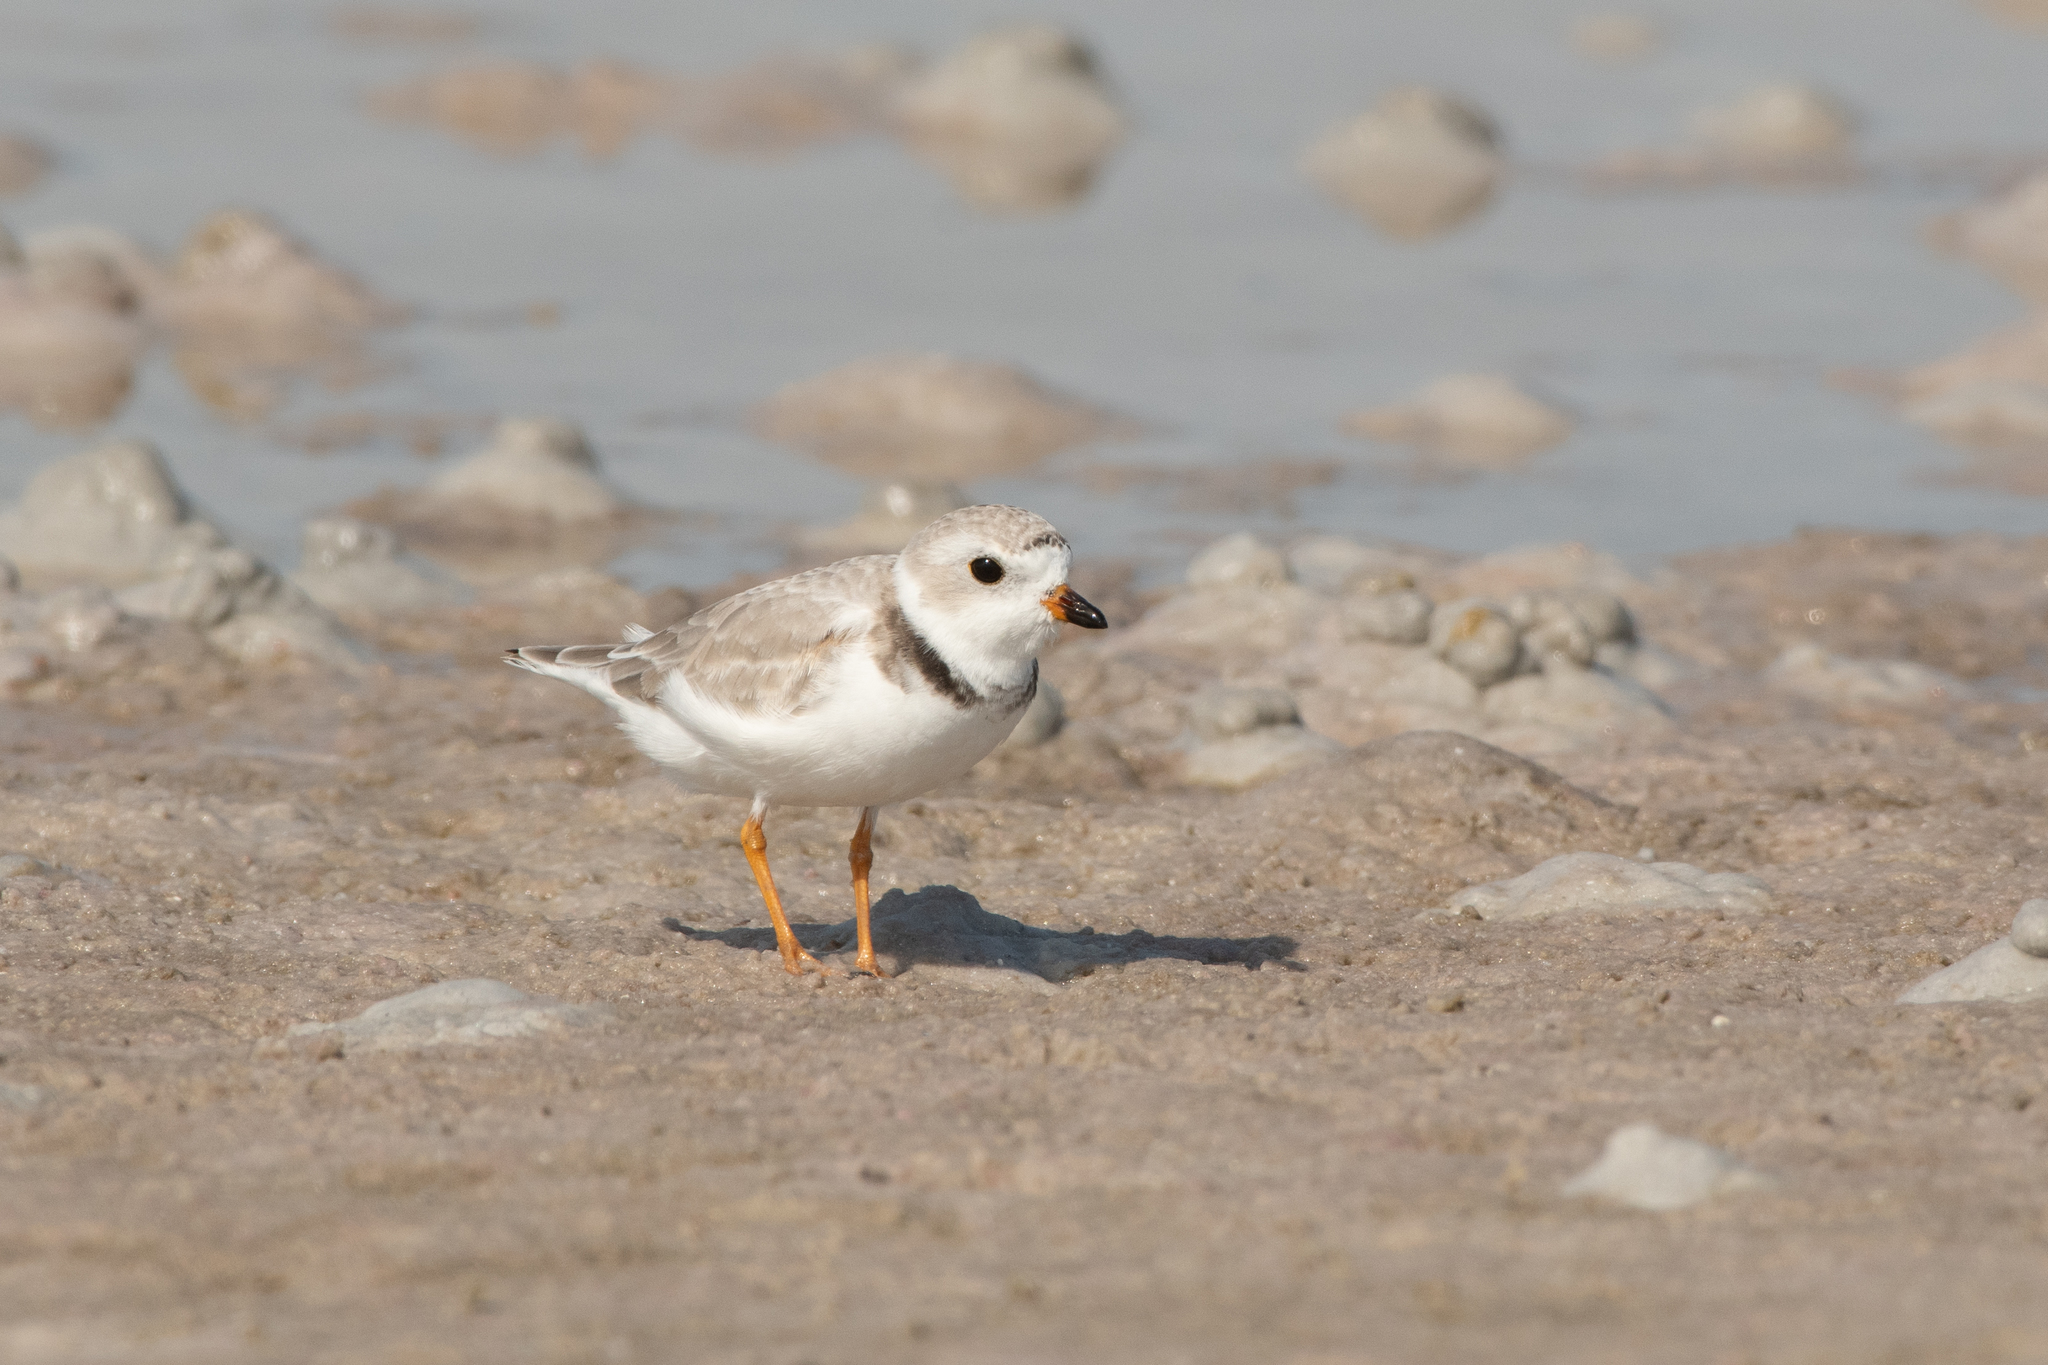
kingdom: Animalia
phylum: Chordata
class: Aves
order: Charadriiformes
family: Charadriidae
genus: Charadrius
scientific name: Charadrius melodus
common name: Piping plover
